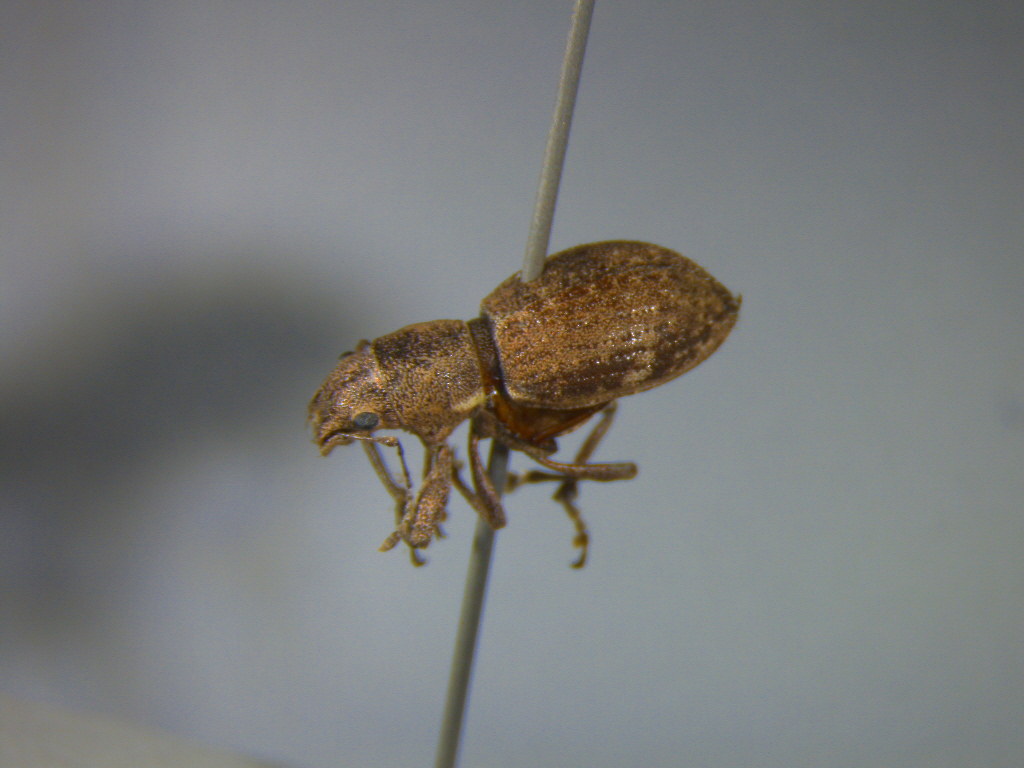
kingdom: Animalia
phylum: Arthropoda
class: Insecta
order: Coleoptera
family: Curculionidae
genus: Naupactus
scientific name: Naupactus cervinus
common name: Fuller rose beetle
